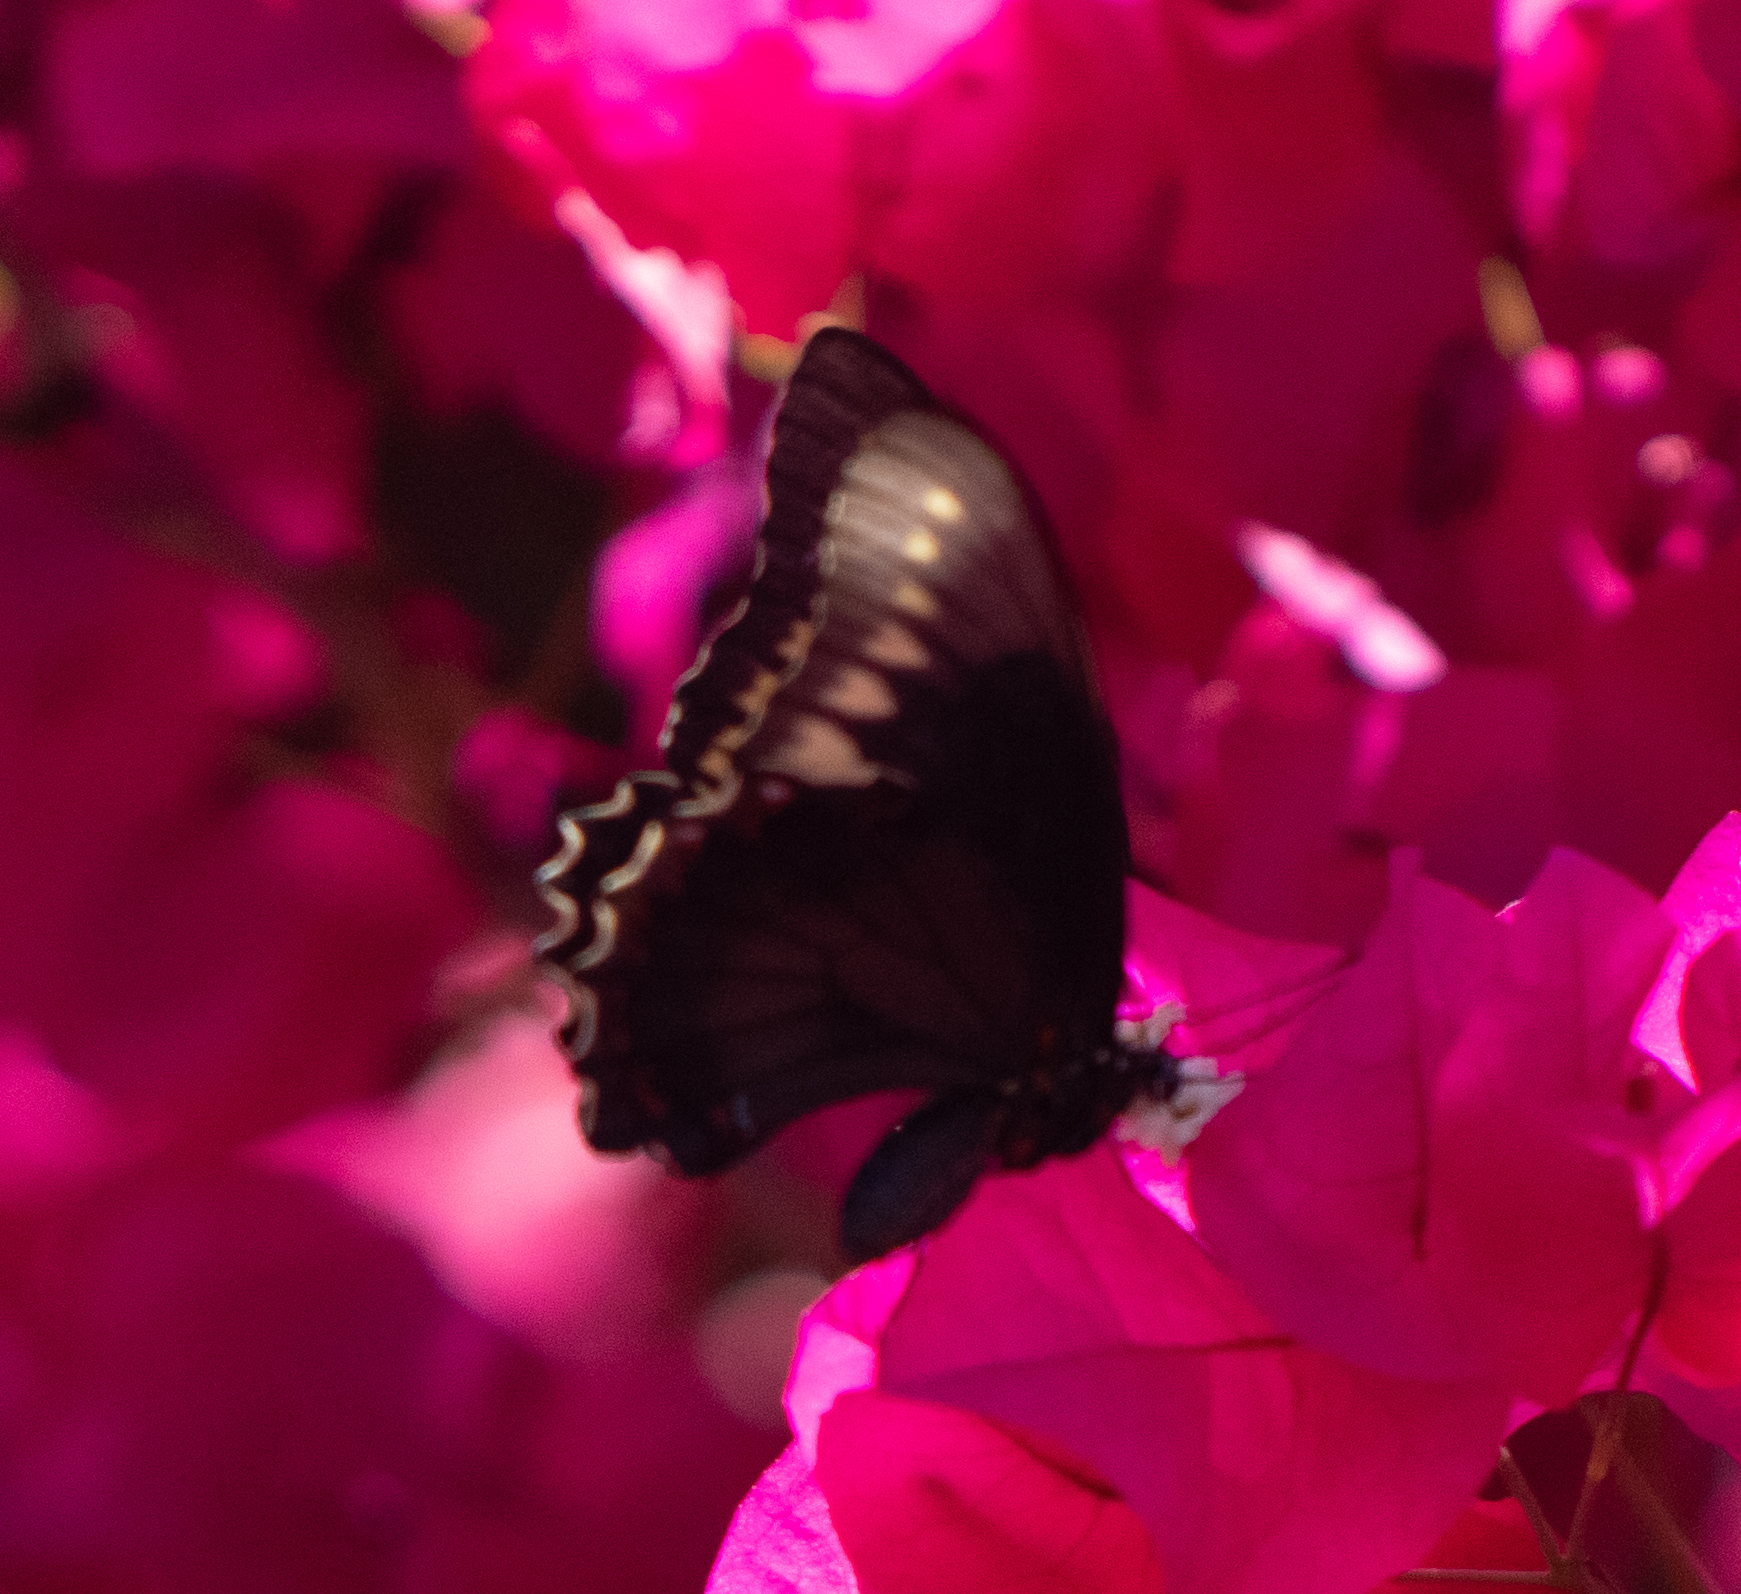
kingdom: Animalia
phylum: Arthropoda
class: Insecta
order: Lepidoptera
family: Papilionidae
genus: Battus
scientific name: Battus polydamas
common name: Polydamas swallowtail
